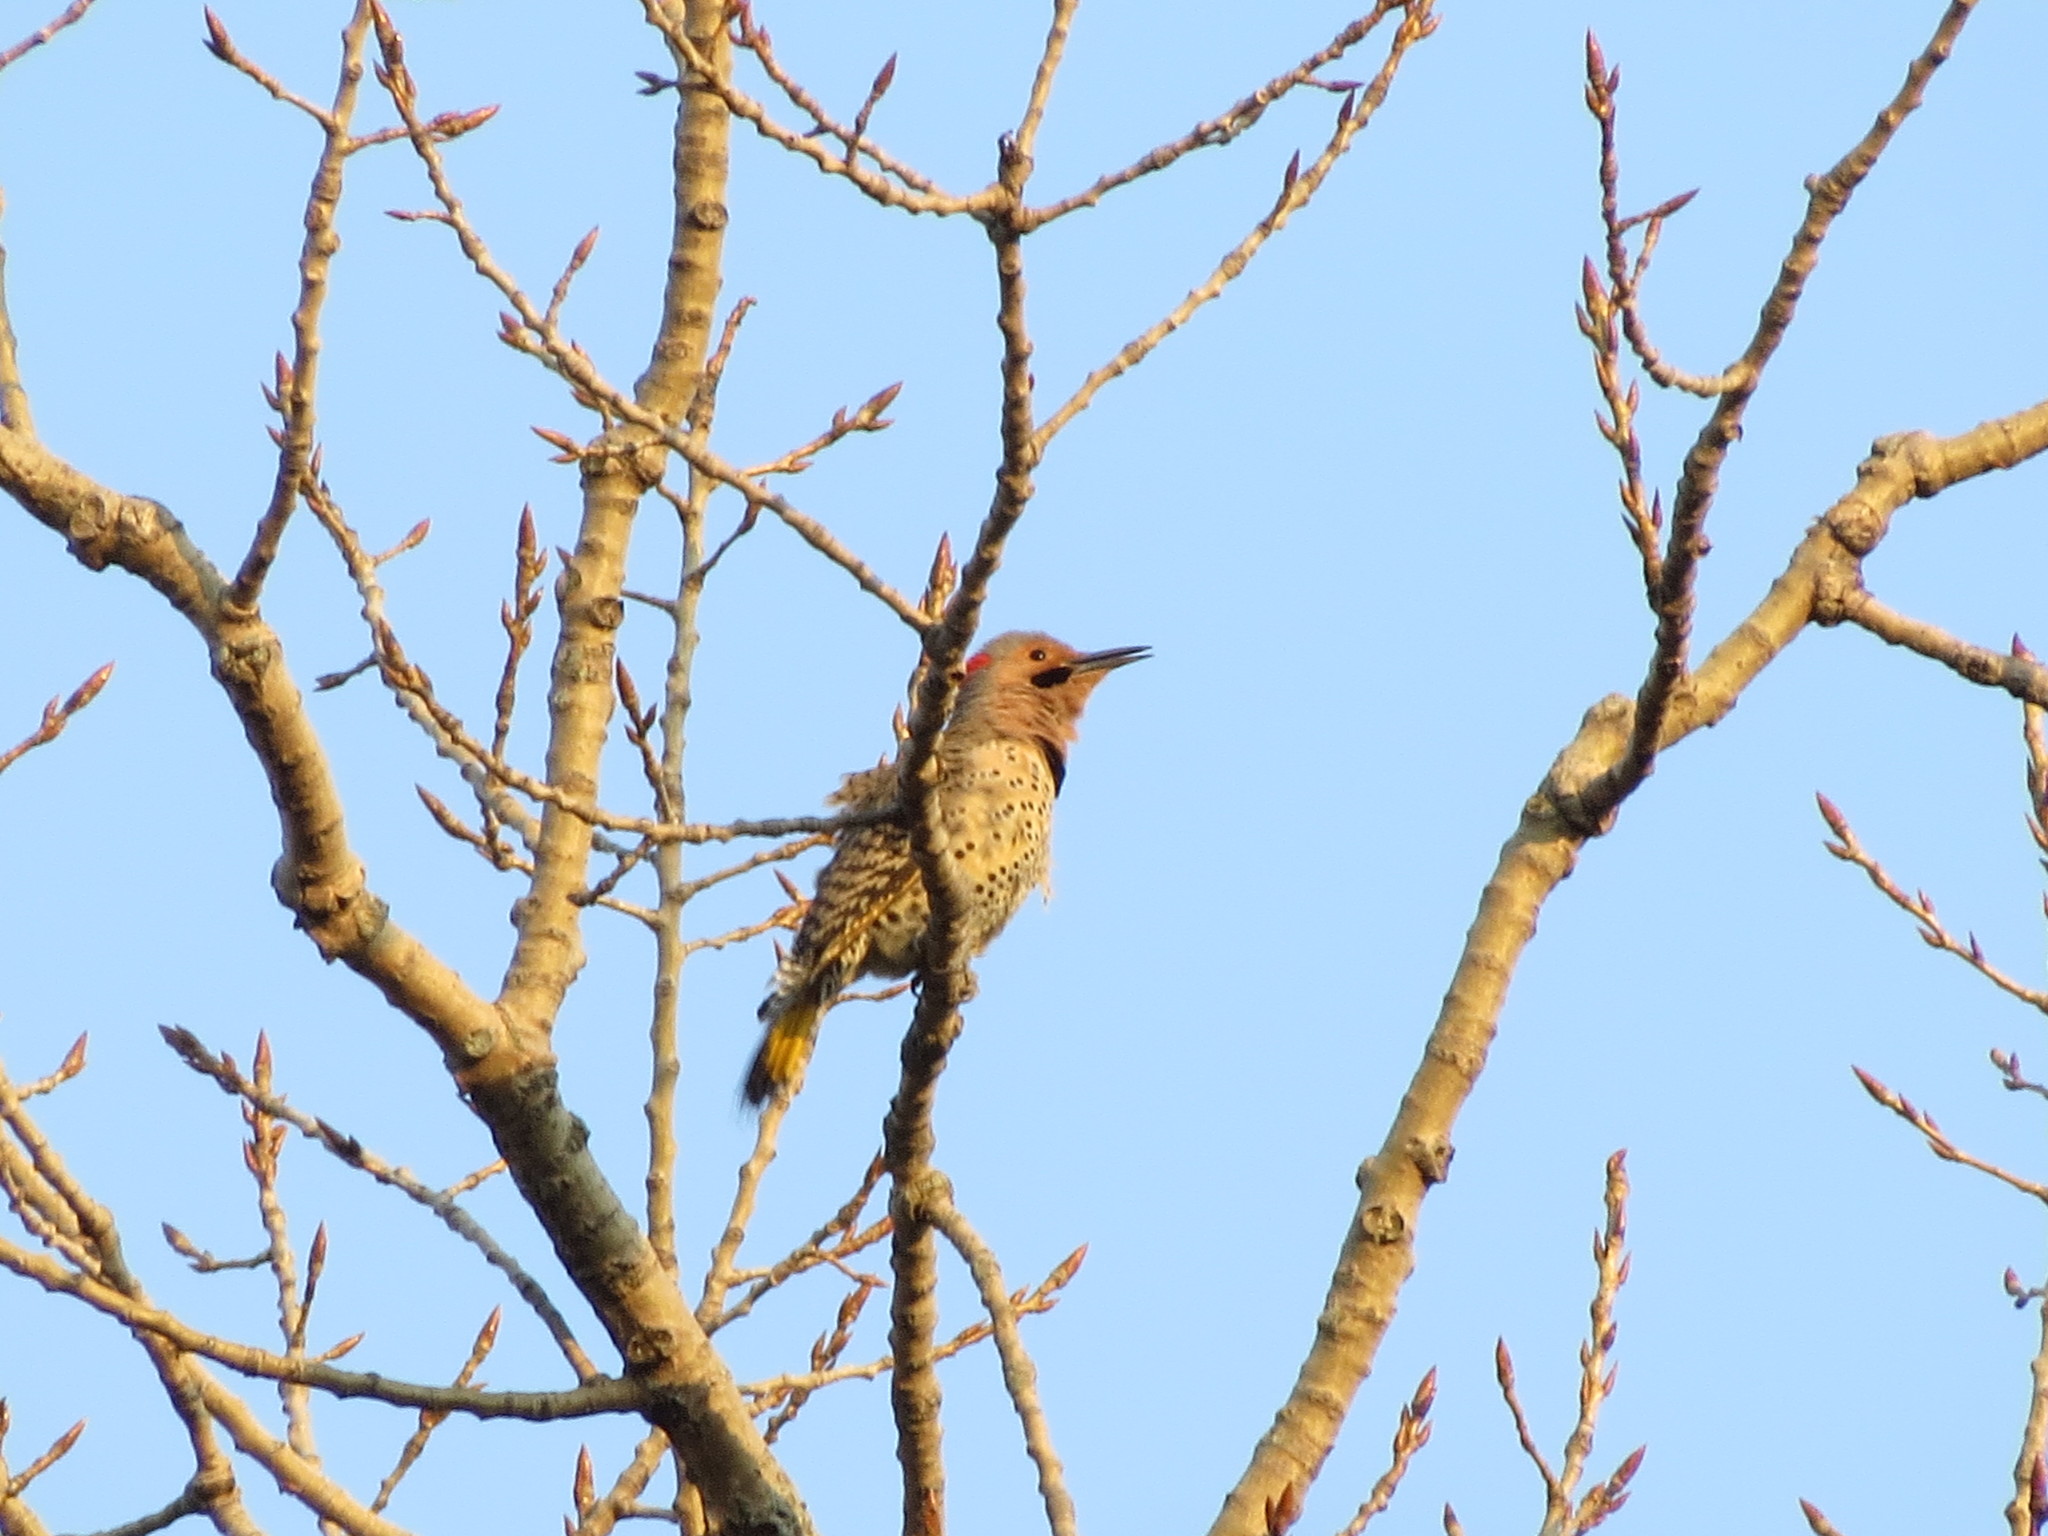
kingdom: Animalia
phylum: Chordata
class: Aves
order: Piciformes
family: Picidae
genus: Colaptes
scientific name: Colaptes auratus
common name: Northern flicker
